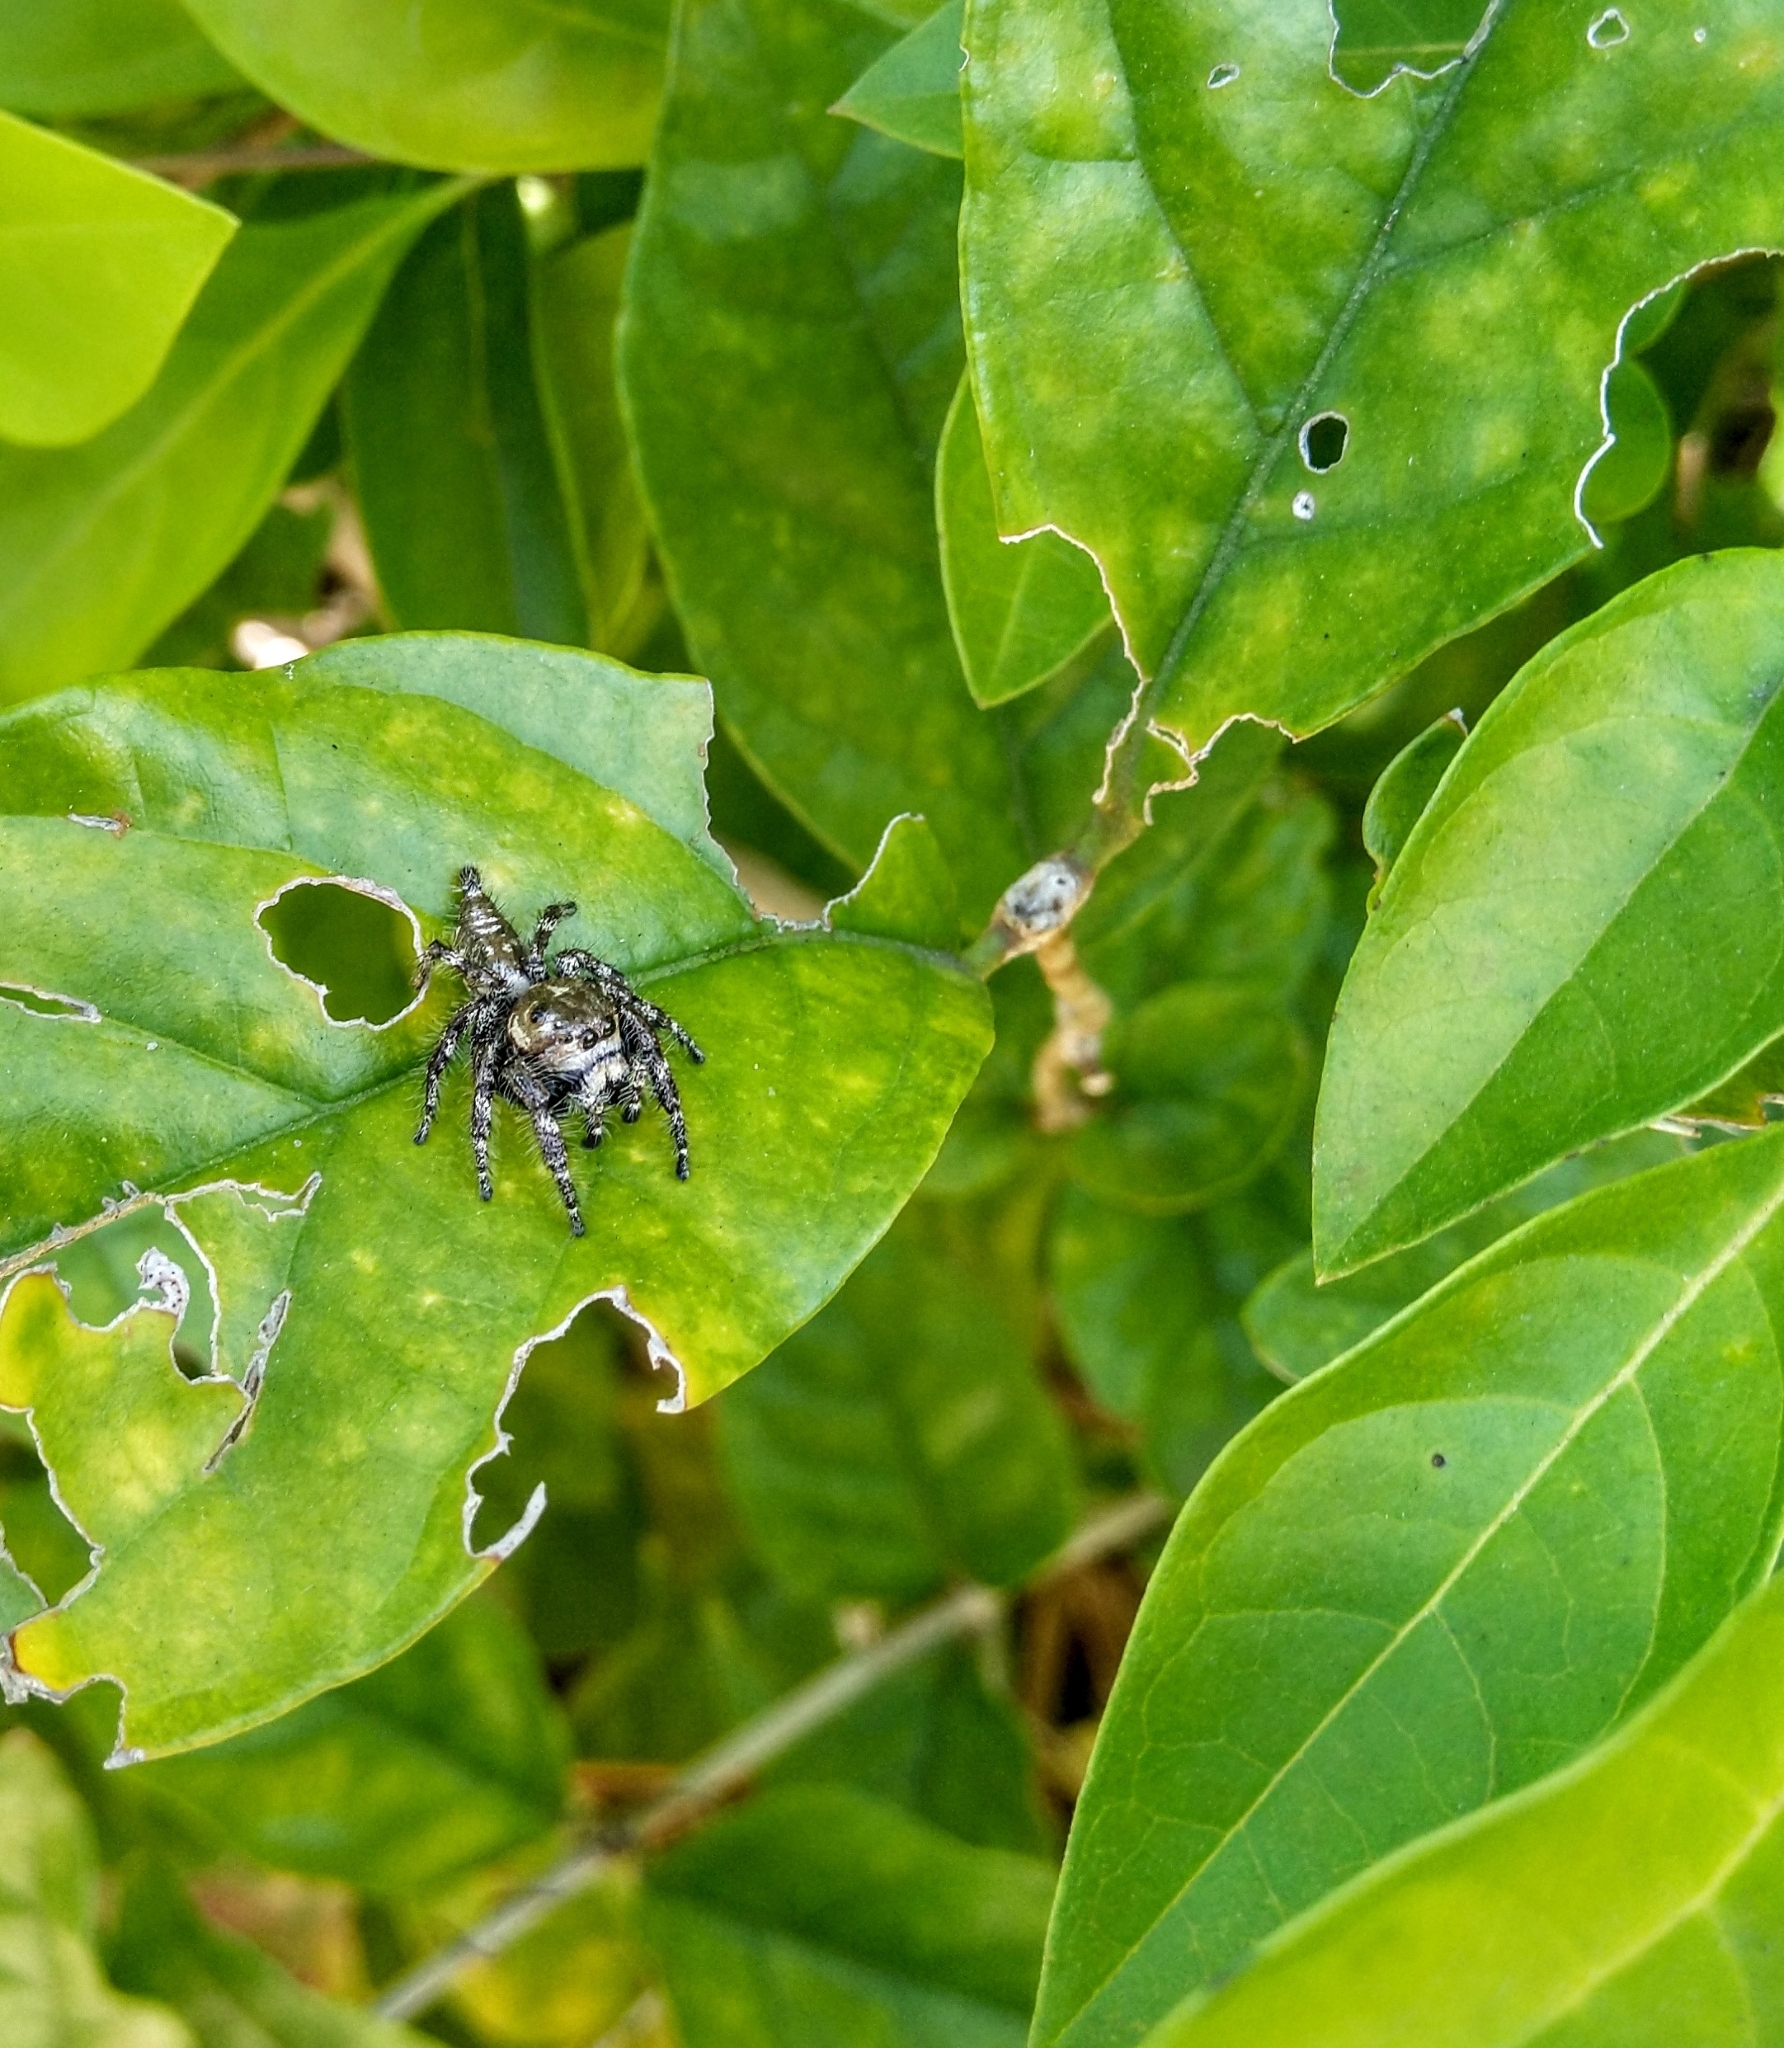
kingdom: Animalia
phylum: Arthropoda
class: Arachnida
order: Araneae
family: Salticidae
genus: Hyllus
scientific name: Hyllus semicupreus
